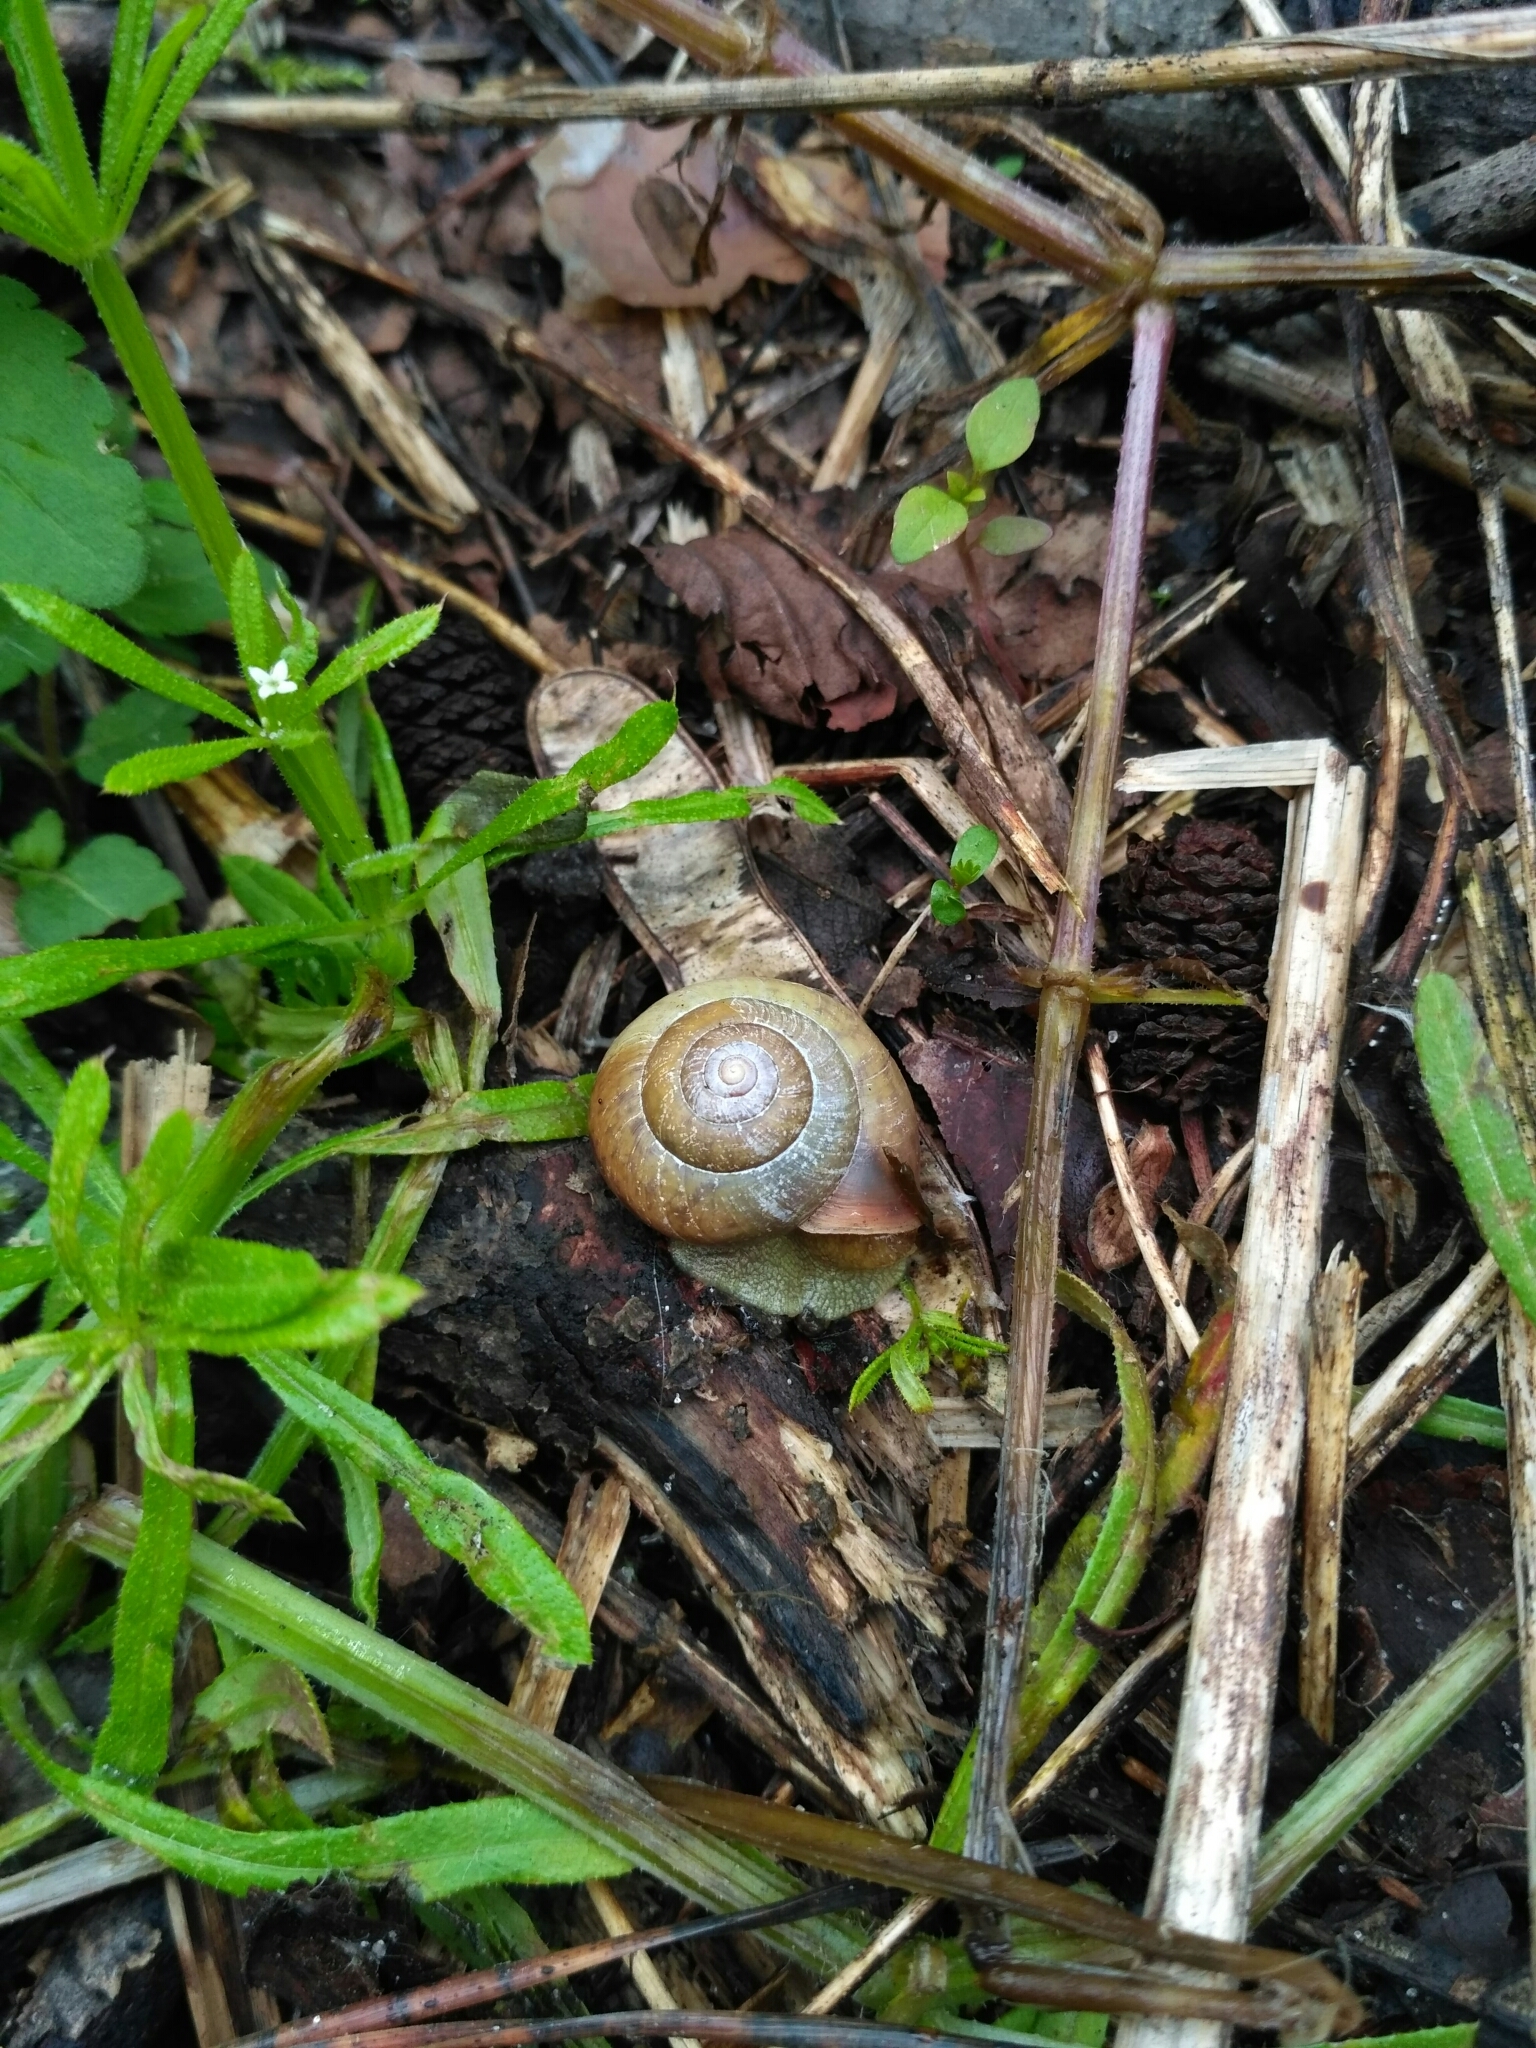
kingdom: Animalia
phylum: Mollusca
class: Gastropoda
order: Stylommatophora
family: Camaenidae
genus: Fruticicola
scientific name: Fruticicola fruticum
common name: Bush snail
